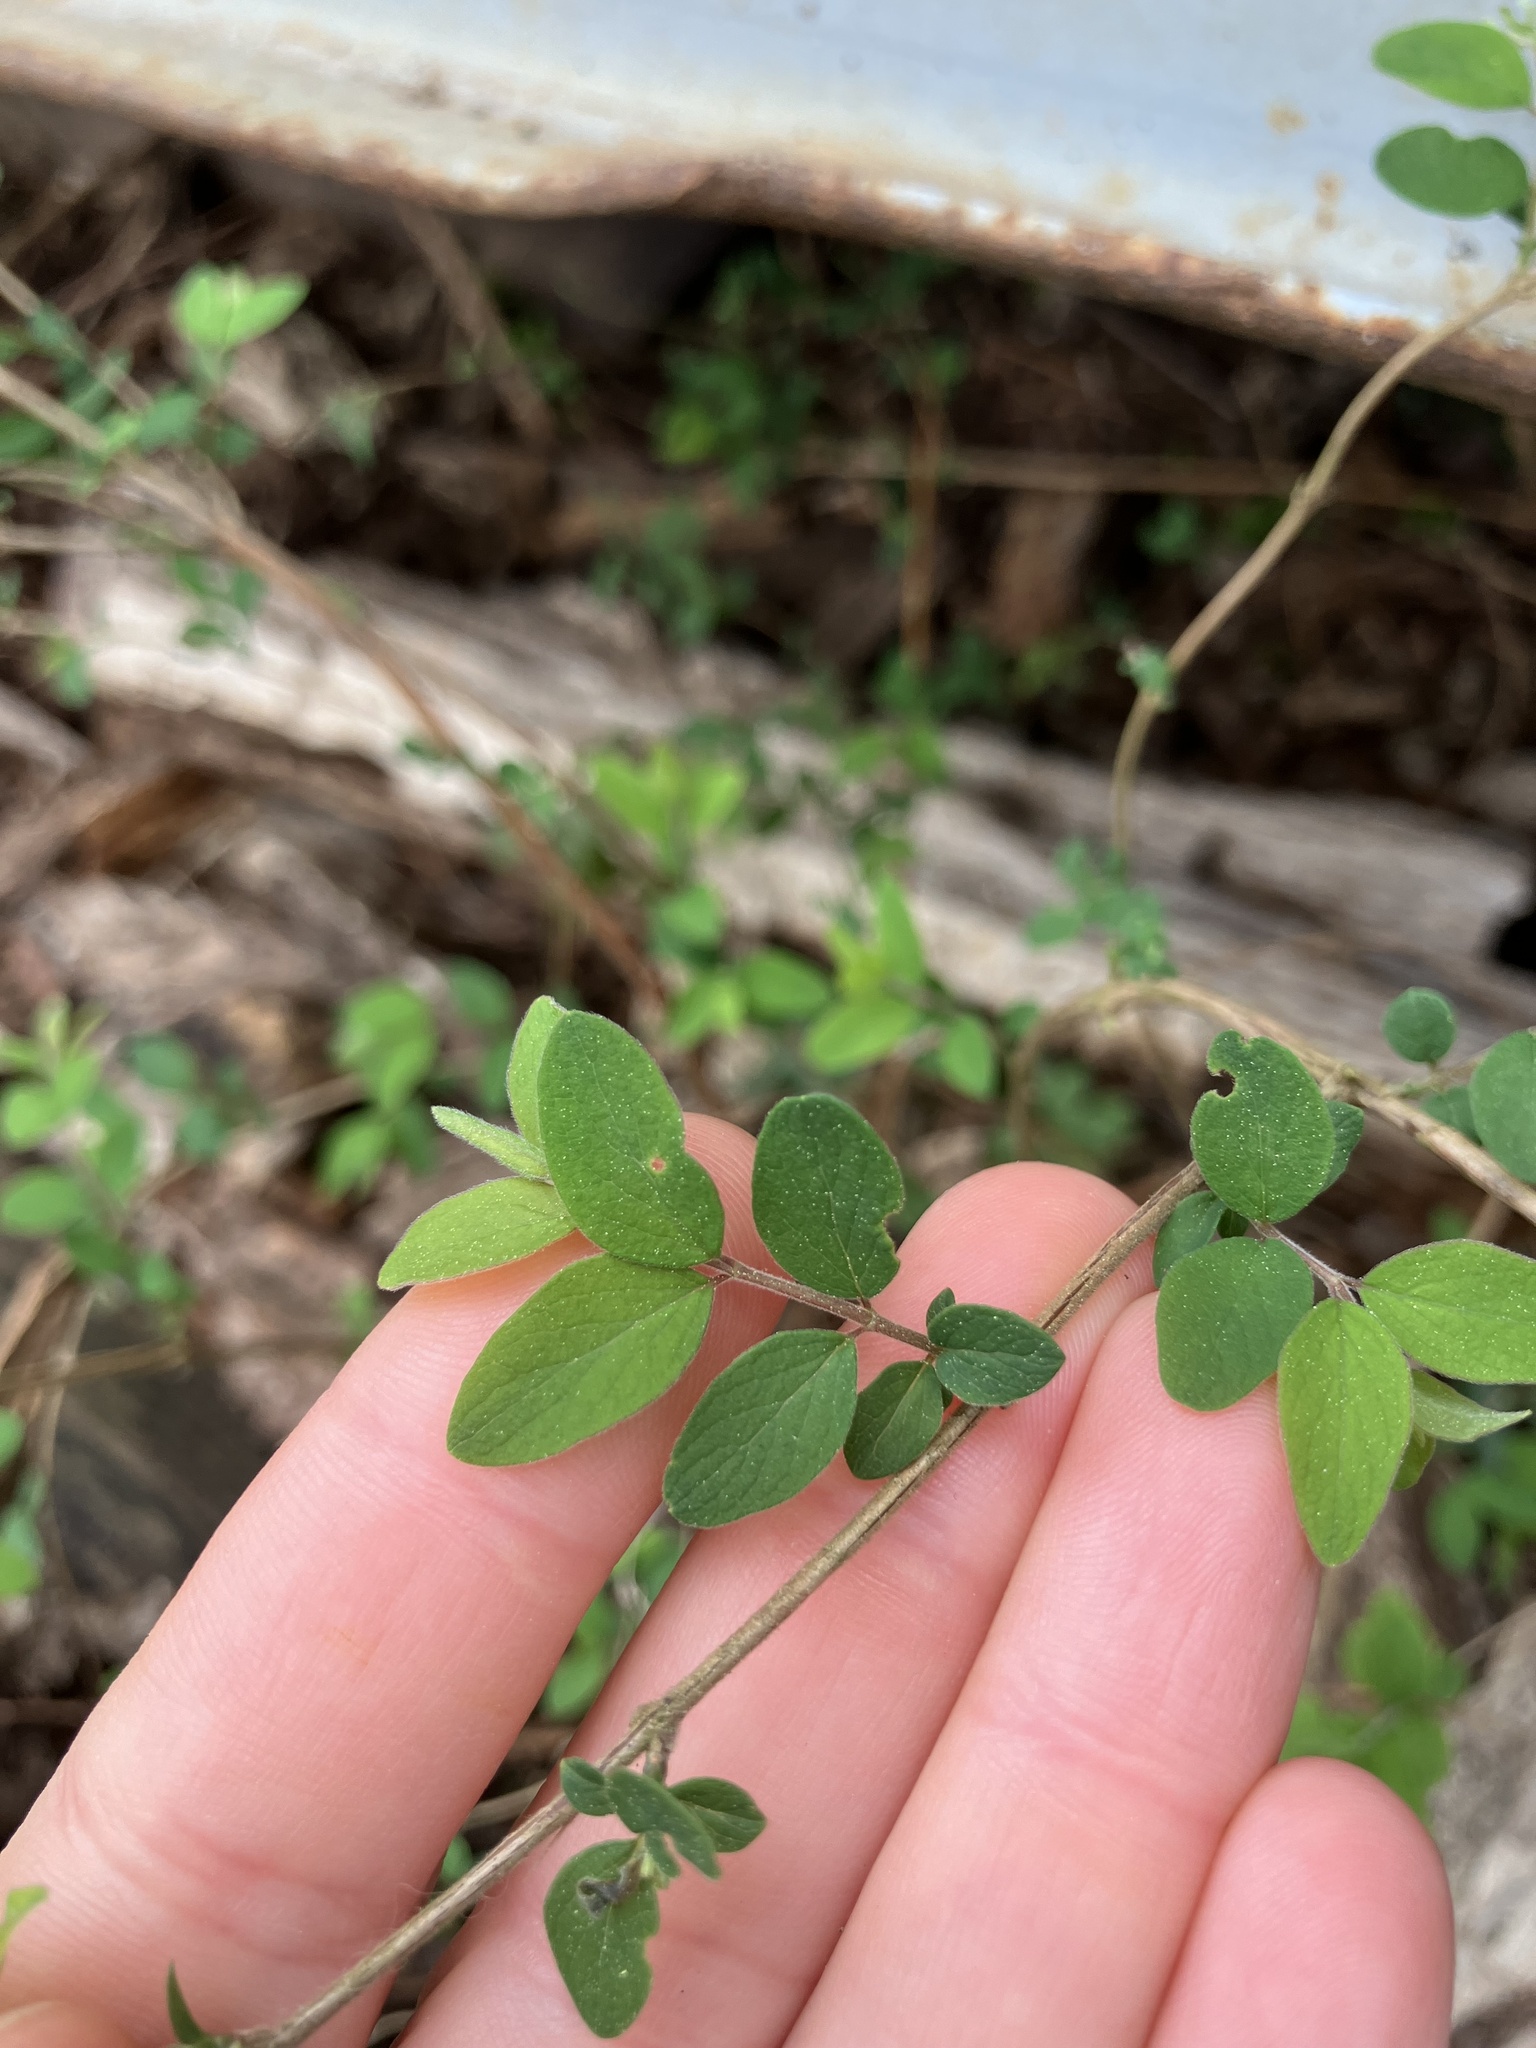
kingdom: Plantae
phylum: Tracheophyta
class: Magnoliopsida
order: Dipsacales
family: Caprifoliaceae
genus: Symphoricarpos
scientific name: Symphoricarpos orbiculatus
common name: Coralberry
